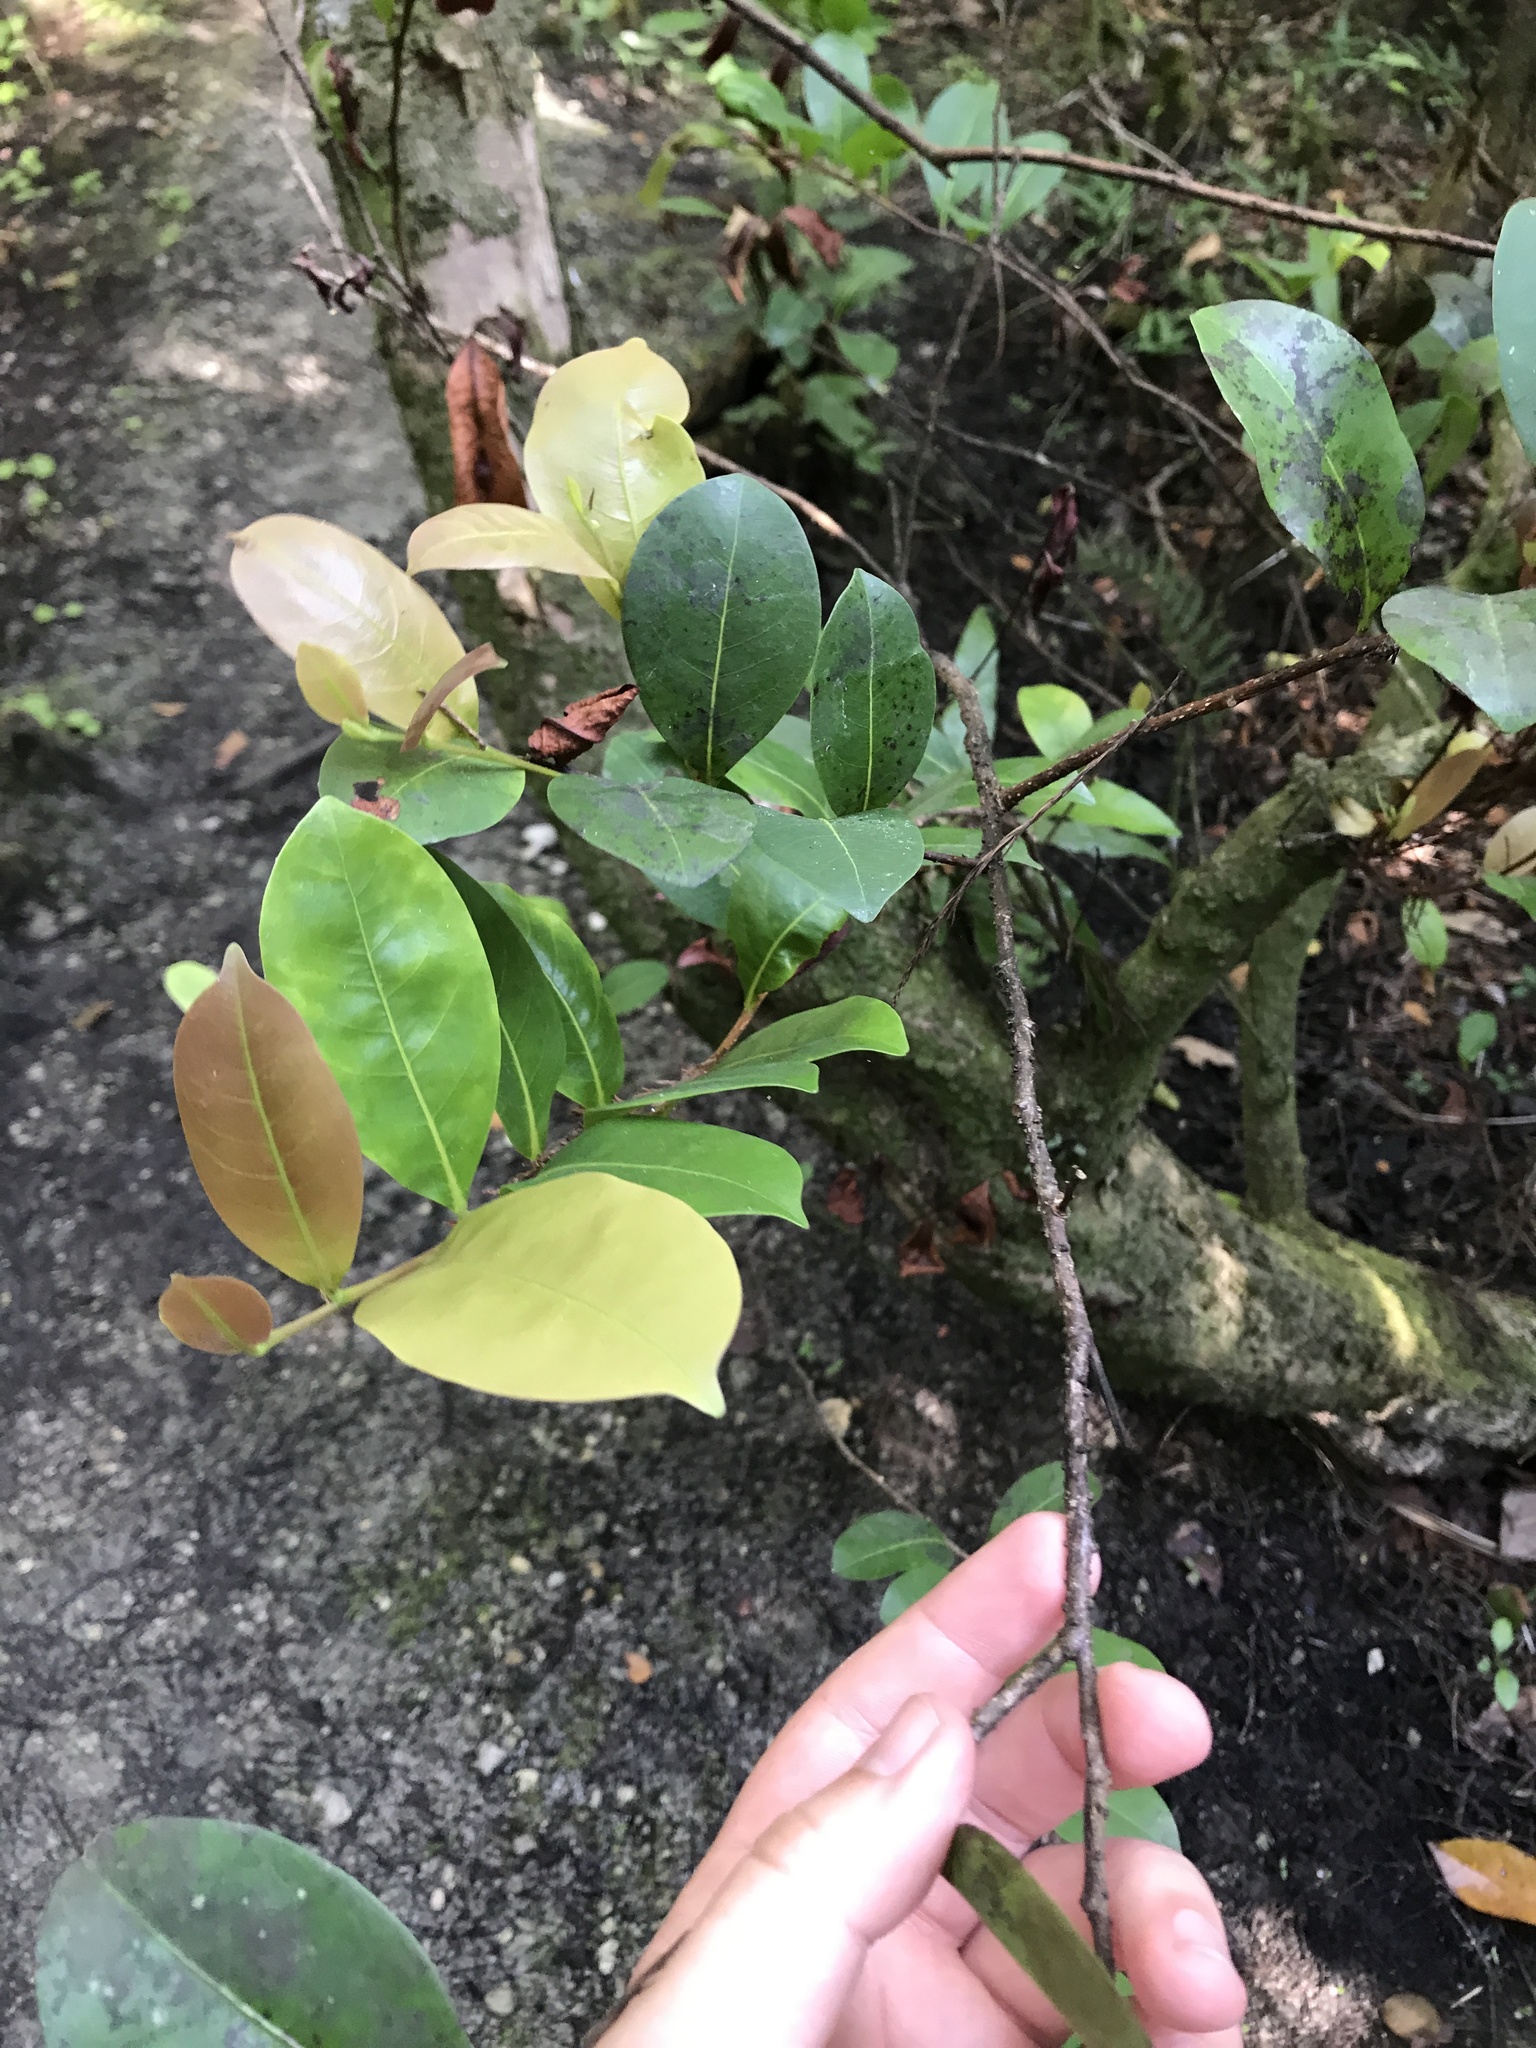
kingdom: Plantae
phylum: Tracheophyta
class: Magnoliopsida
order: Malpighiales
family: Chrysobalanaceae
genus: Chrysobalanus
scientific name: Chrysobalanus icaco
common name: Coco plum
